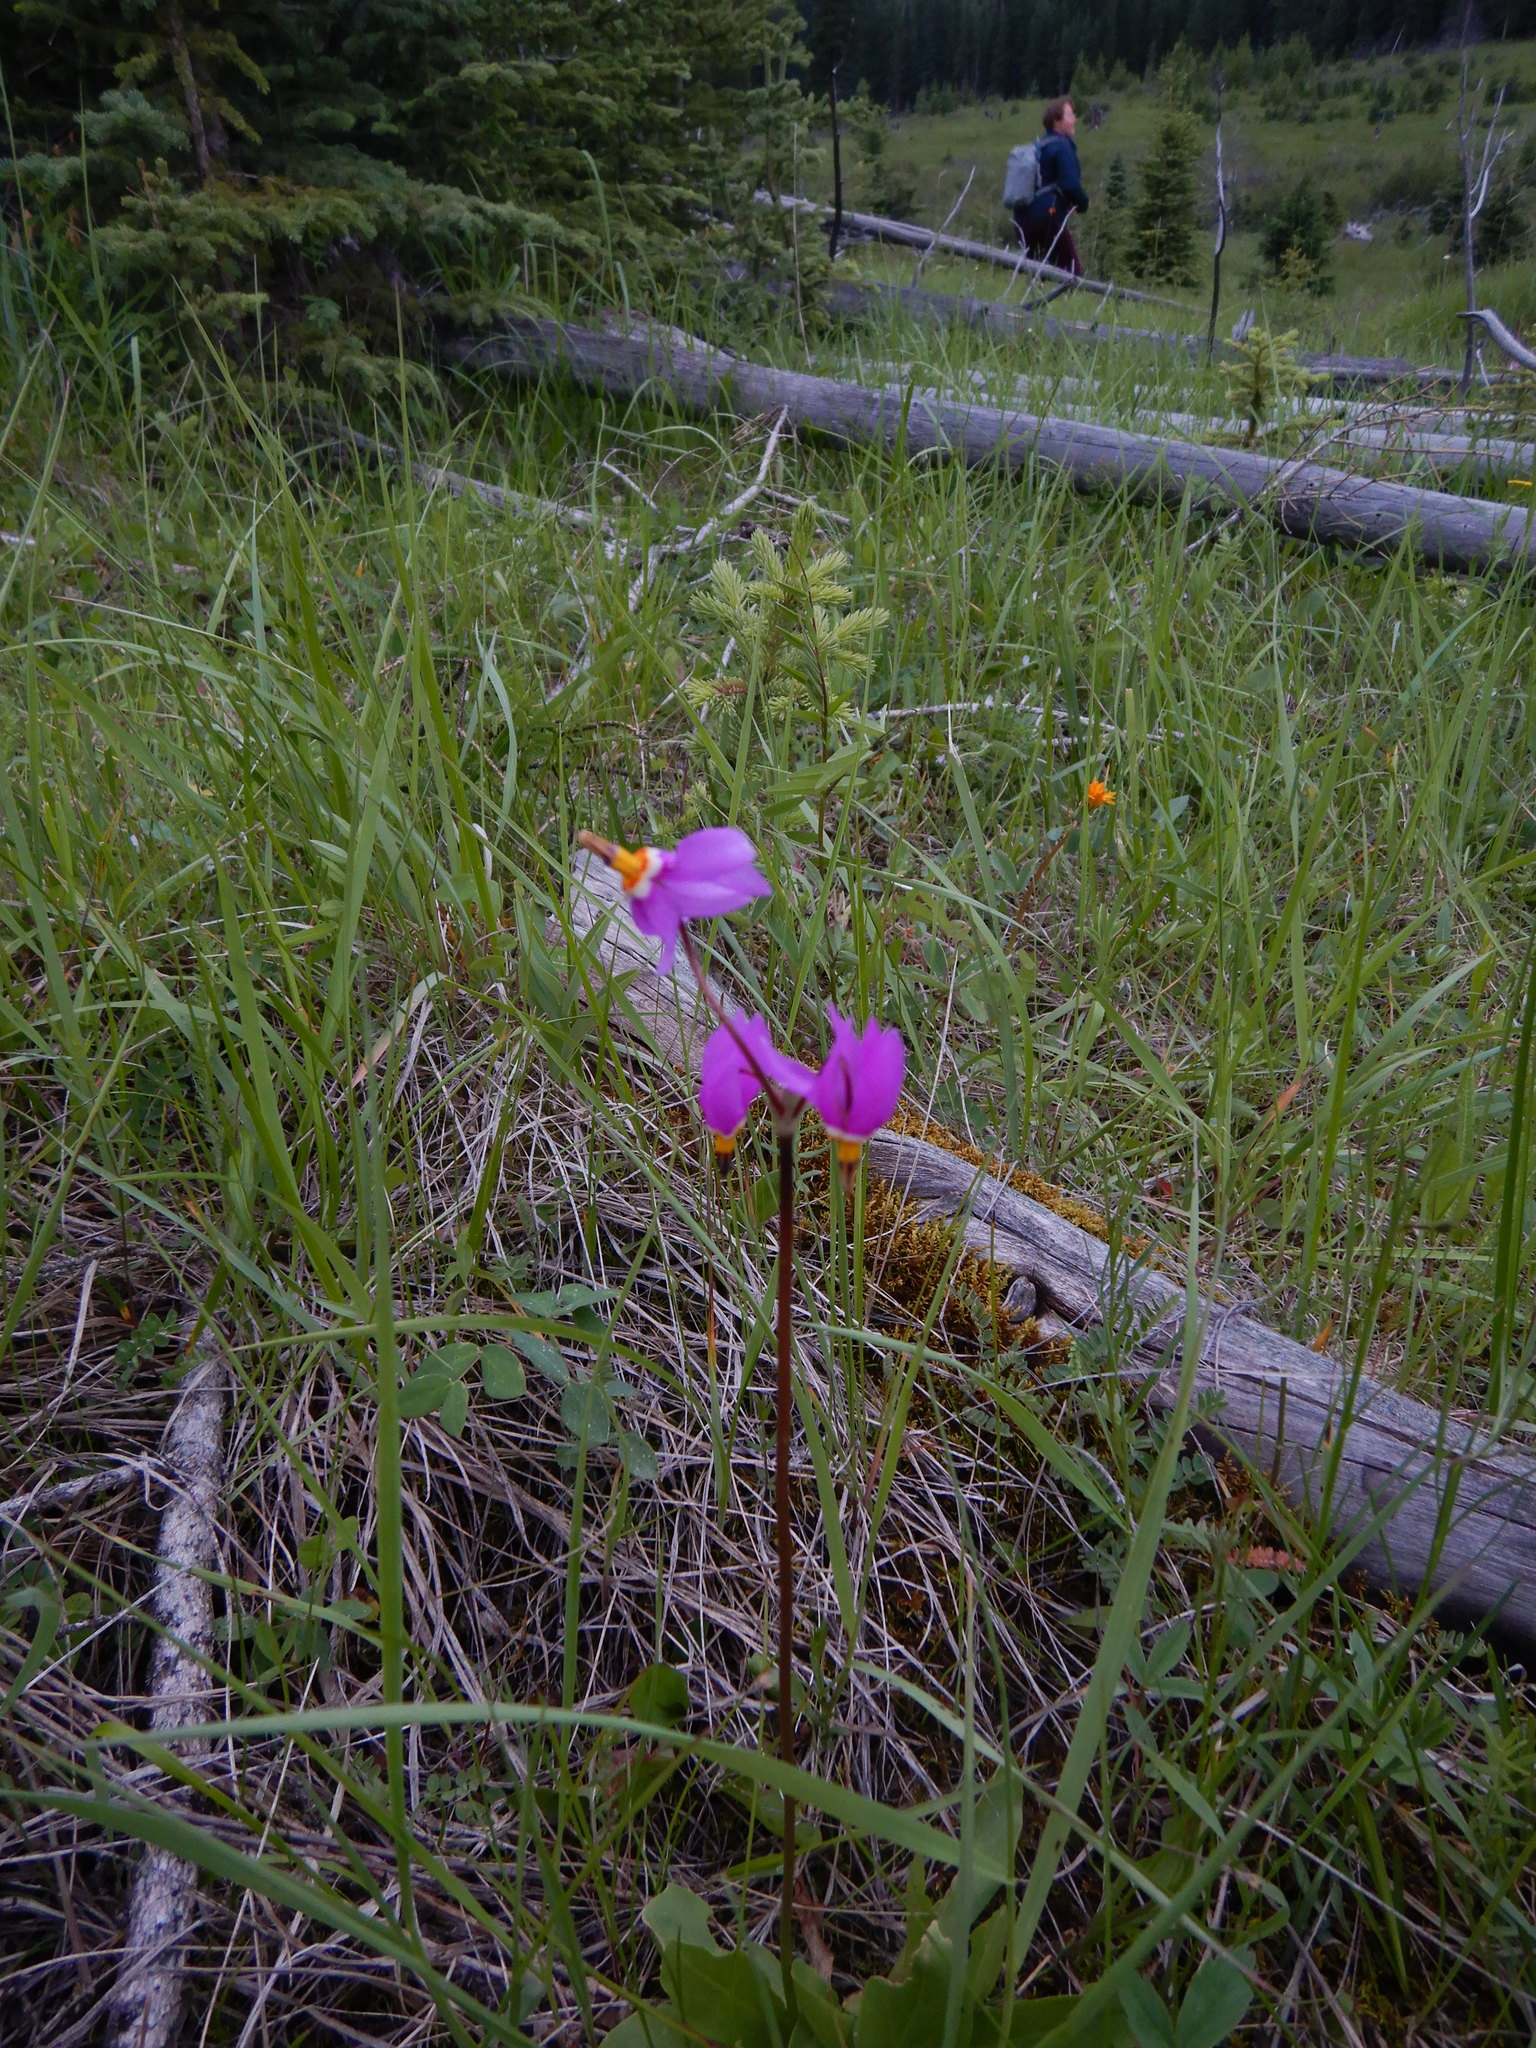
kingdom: Plantae
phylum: Tracheophyta
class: Magnoliopsida
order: Ericales
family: Primulaceae
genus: Dodecatheon
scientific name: Dodecatheon pulchellum
